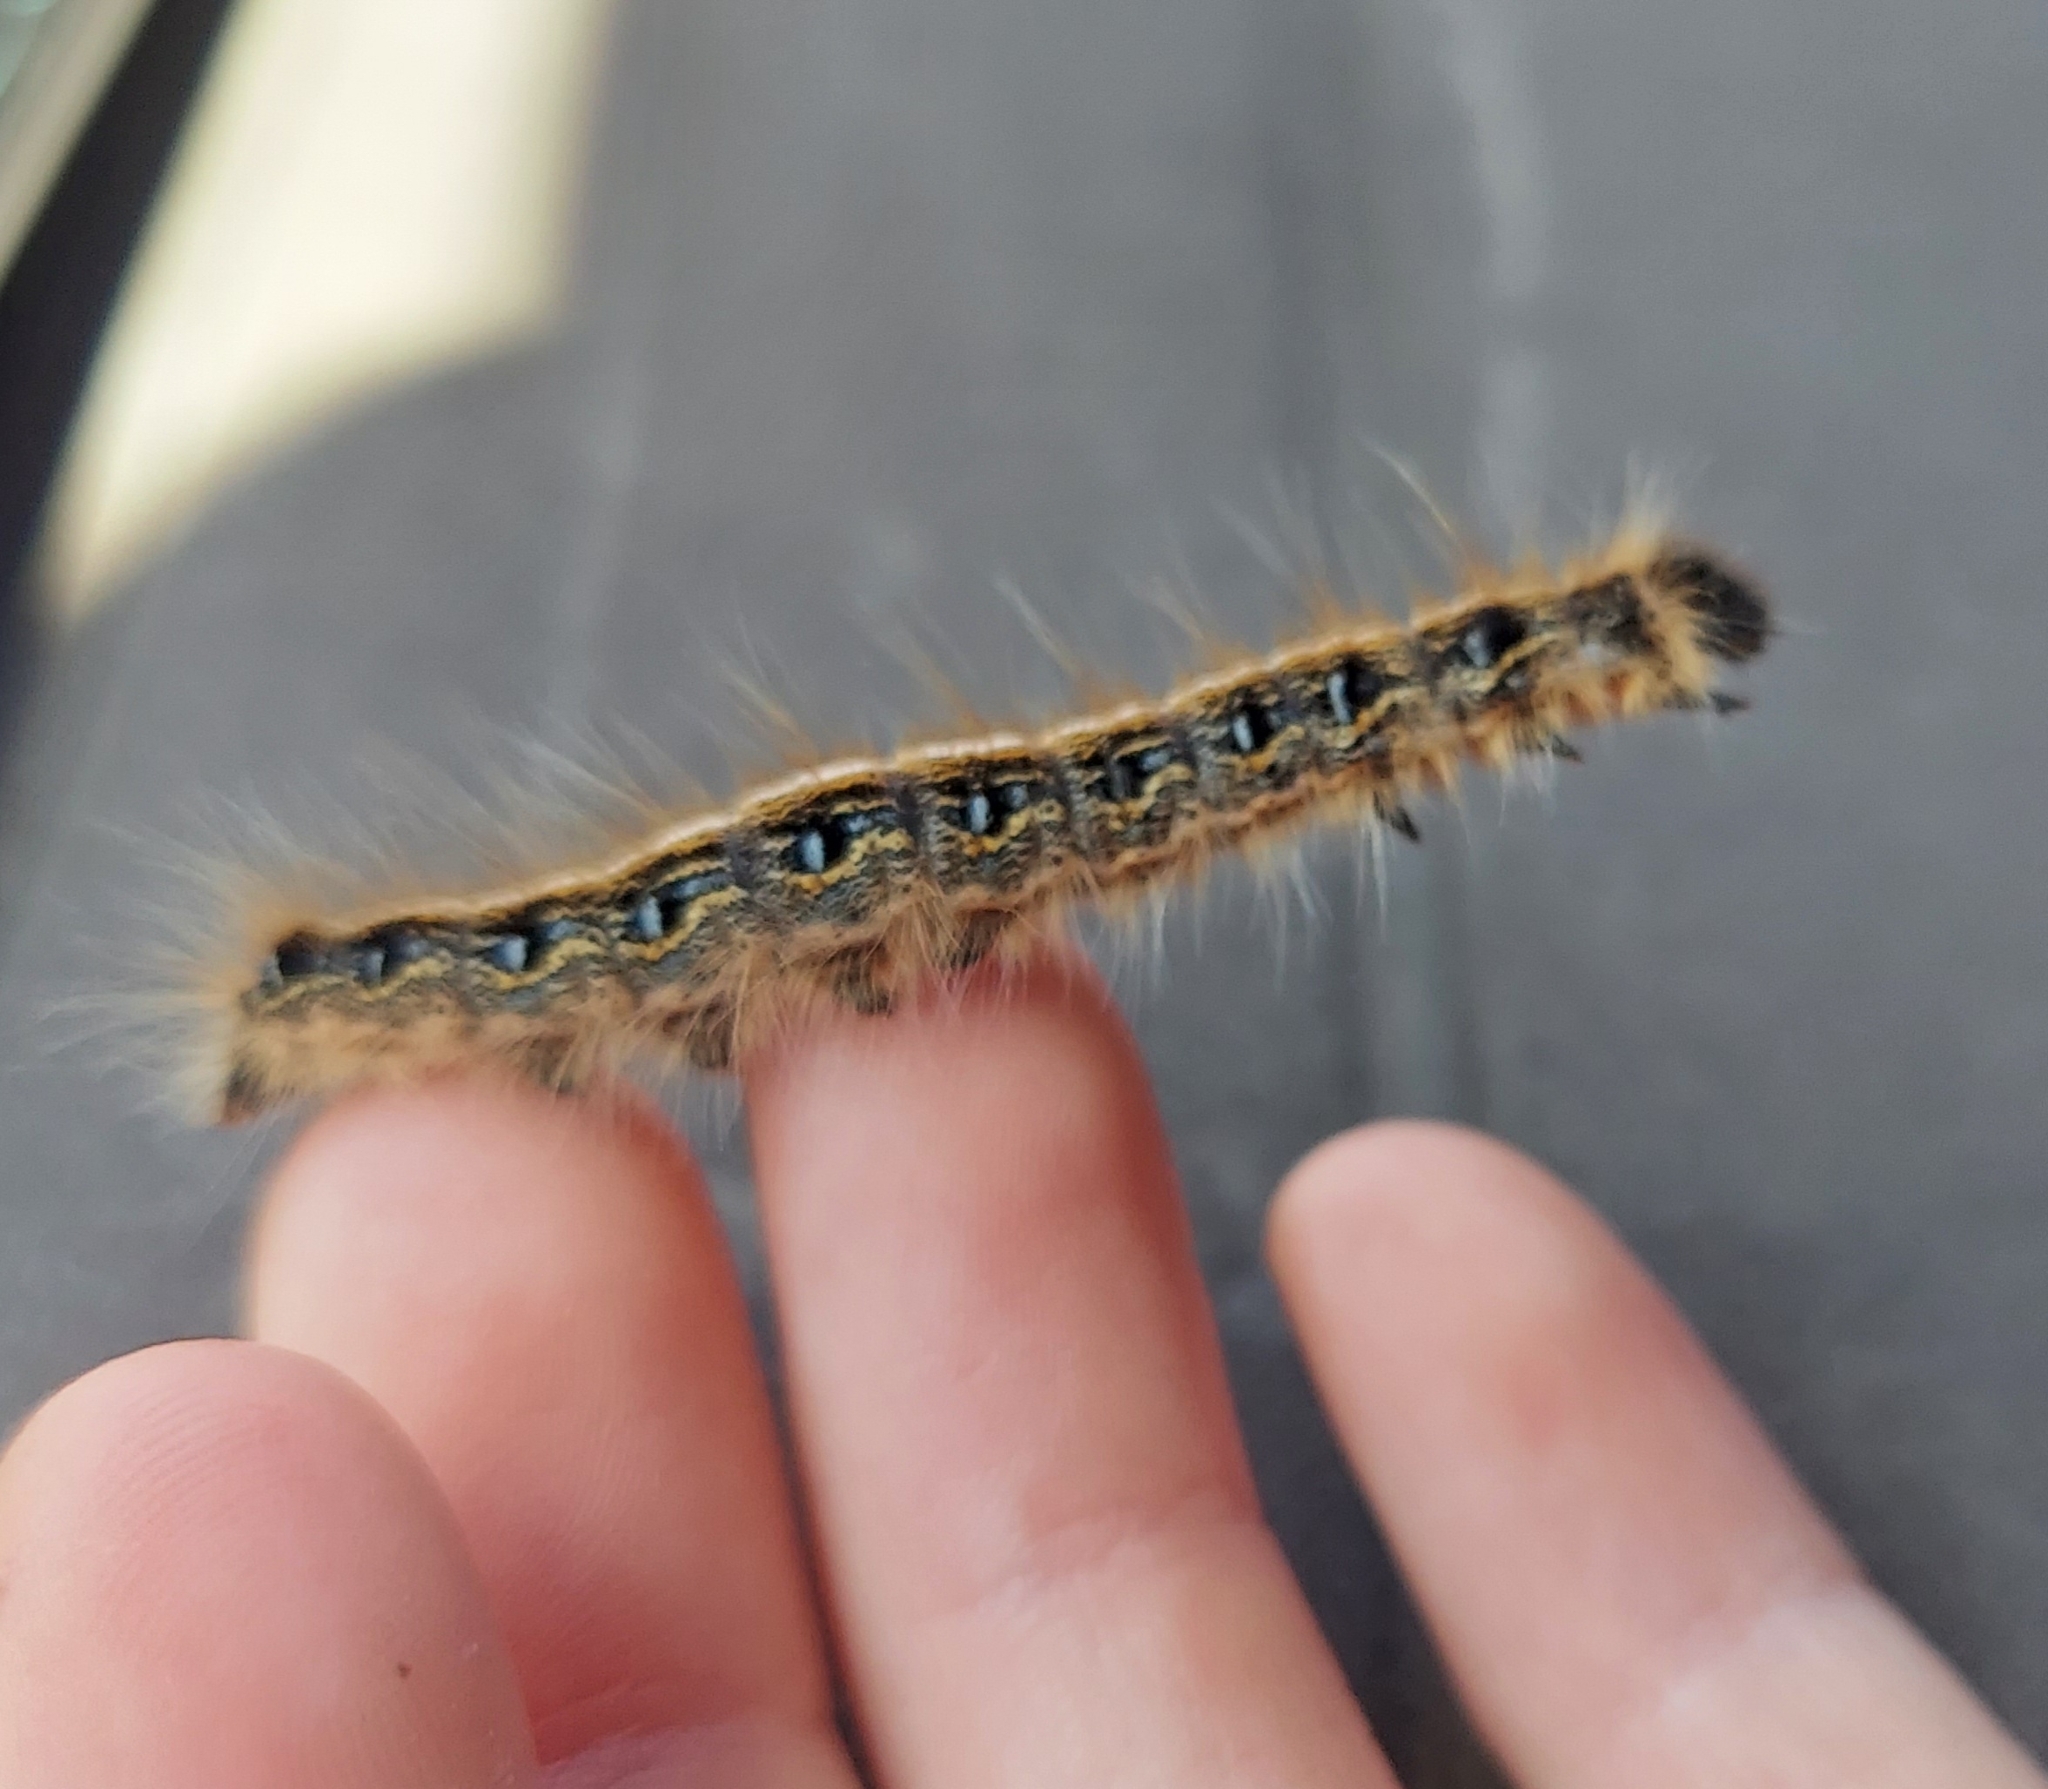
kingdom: Animalia
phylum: Arthropoda
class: Insecta
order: Lepidoptera
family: Lasiocampidae
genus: Malacosoma
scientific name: Malacosoma americana
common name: Eastern tent caterpillar moth
